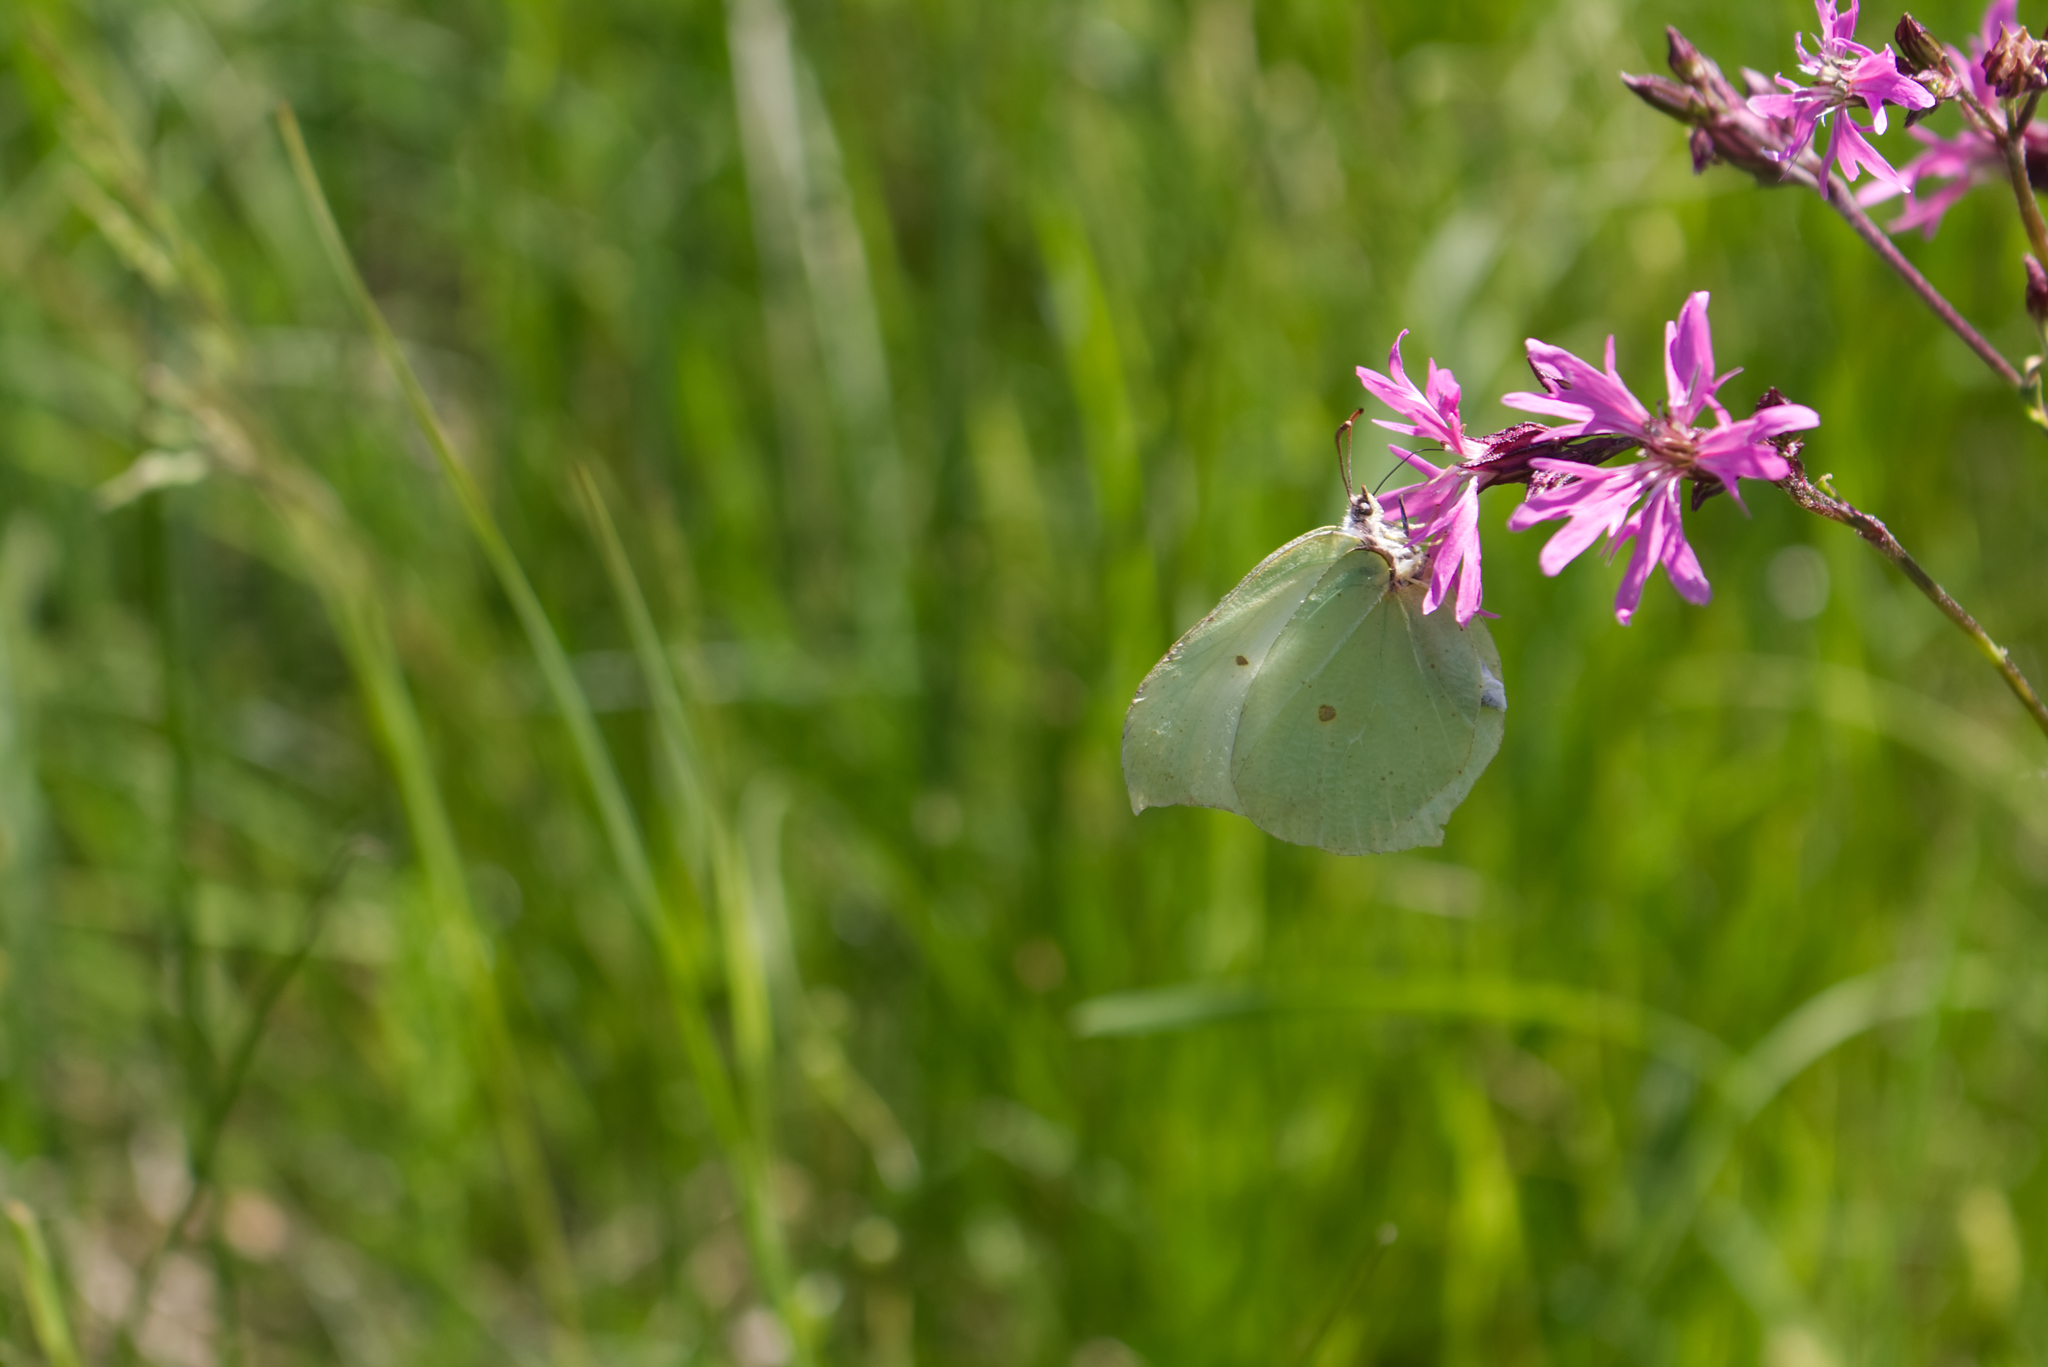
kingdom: Animalia
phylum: Arthropoda
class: Insecta
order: Lepidoptera
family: Pieridae
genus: Gonepteryx
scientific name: Gonepteryx rhamni
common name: Brimstone
